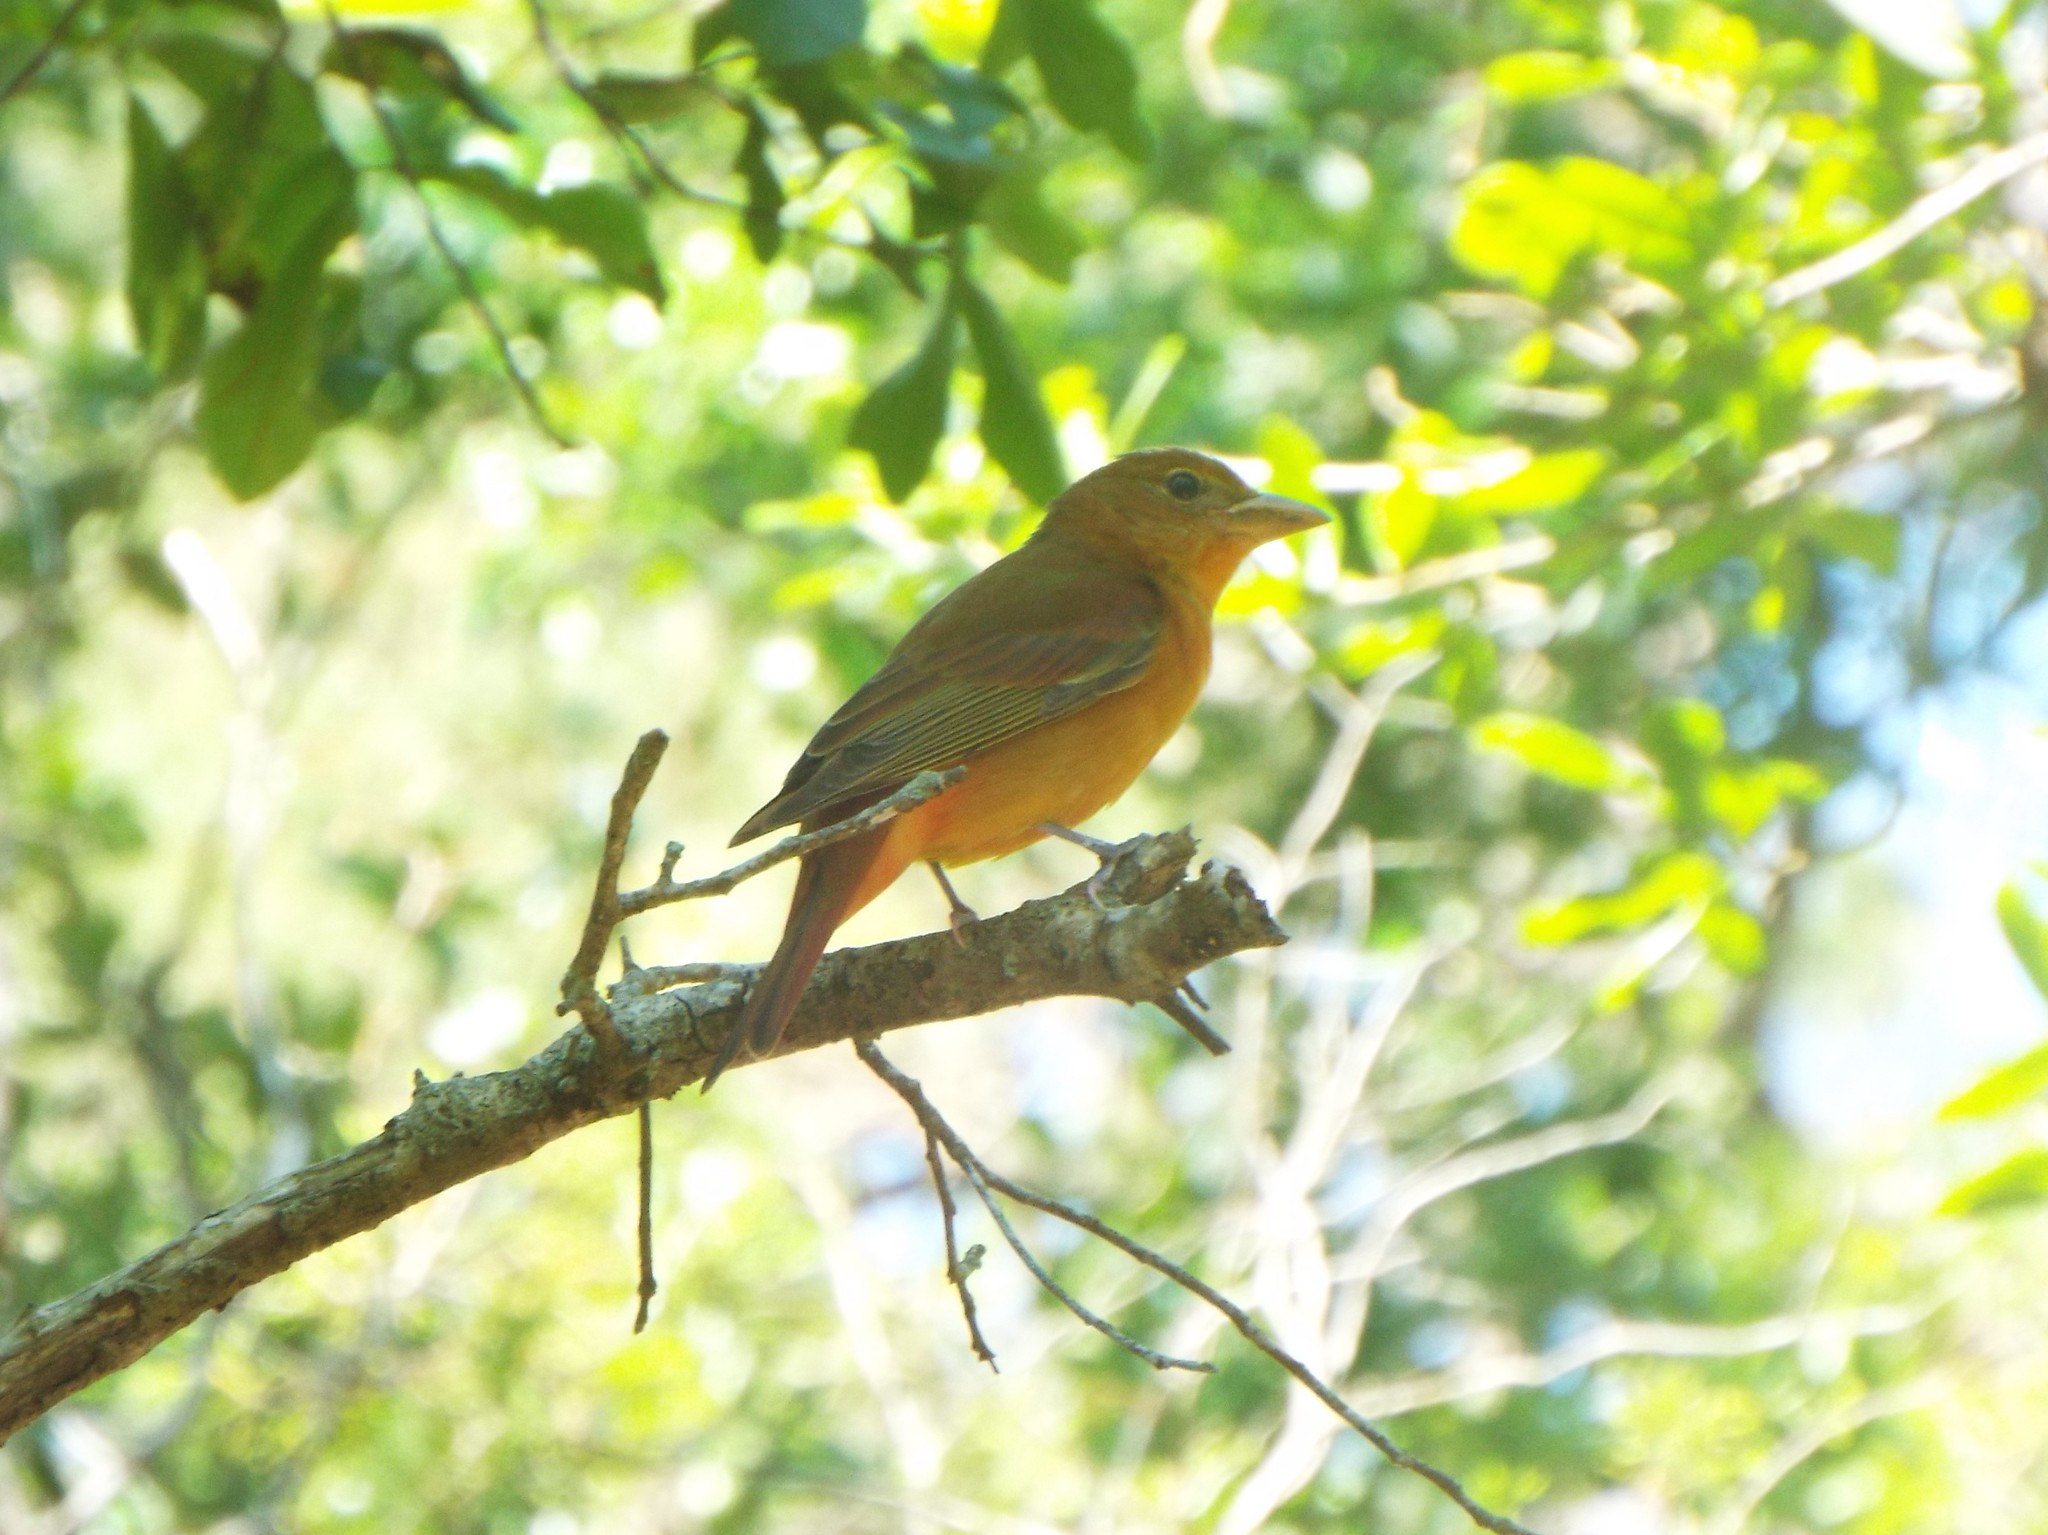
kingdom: Animalia
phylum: Chordata
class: Aves
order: Passeriformes
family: Cardinalidae
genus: Piranga
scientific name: Piranga rubra
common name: Summer tanager
